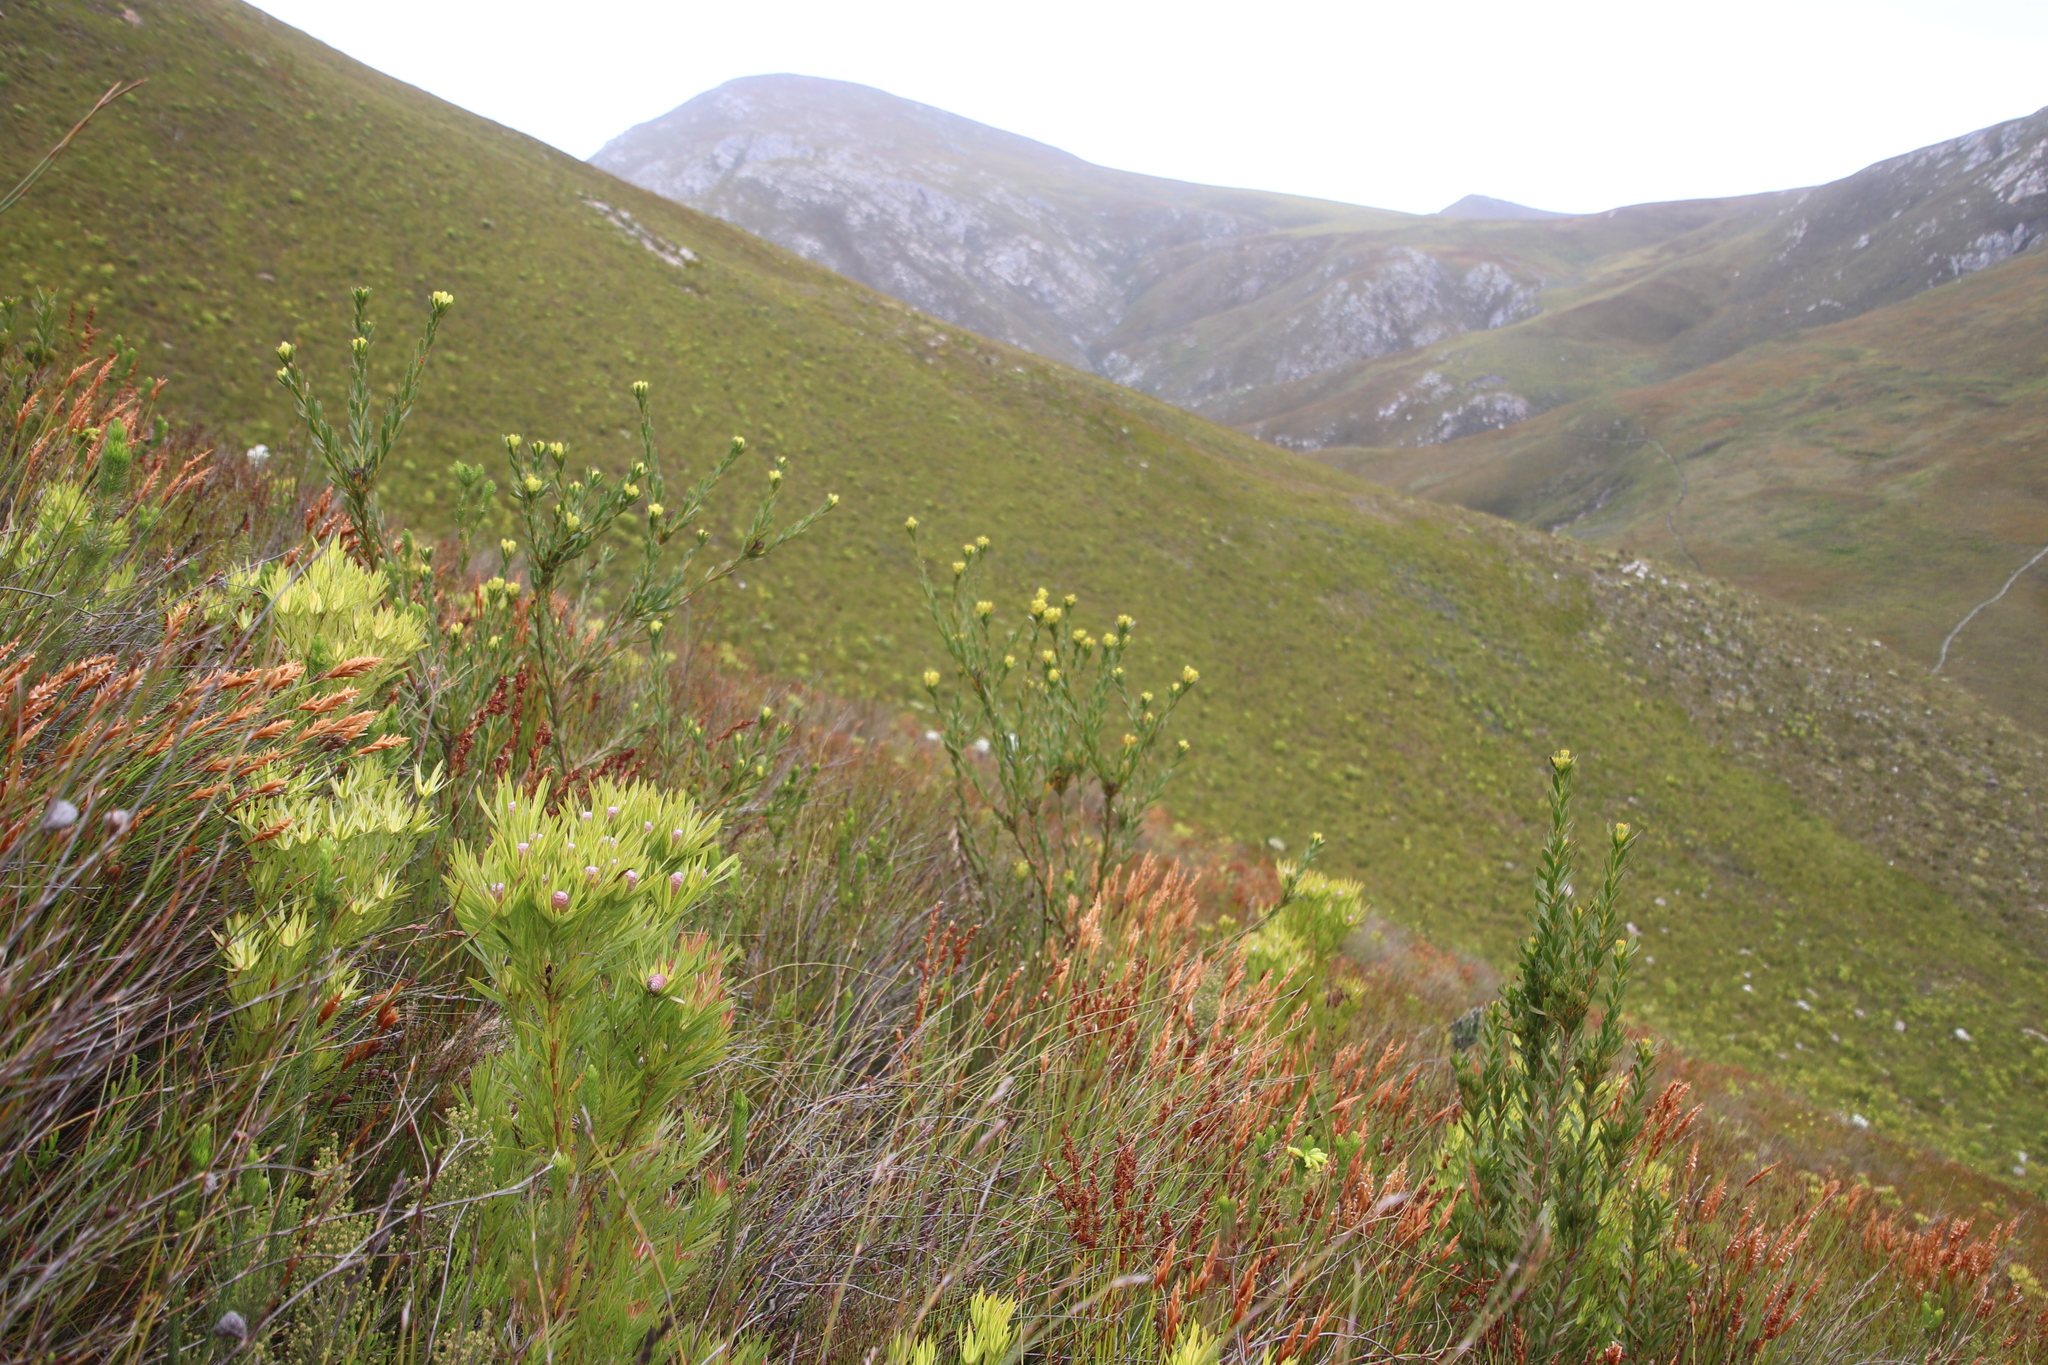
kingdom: Plantae
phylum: Tracheophyta
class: Magnoliopsida
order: Proteales
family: Proteaceae
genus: Aulax
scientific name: Aulax umbellata
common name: Broad-leaf featherbush
